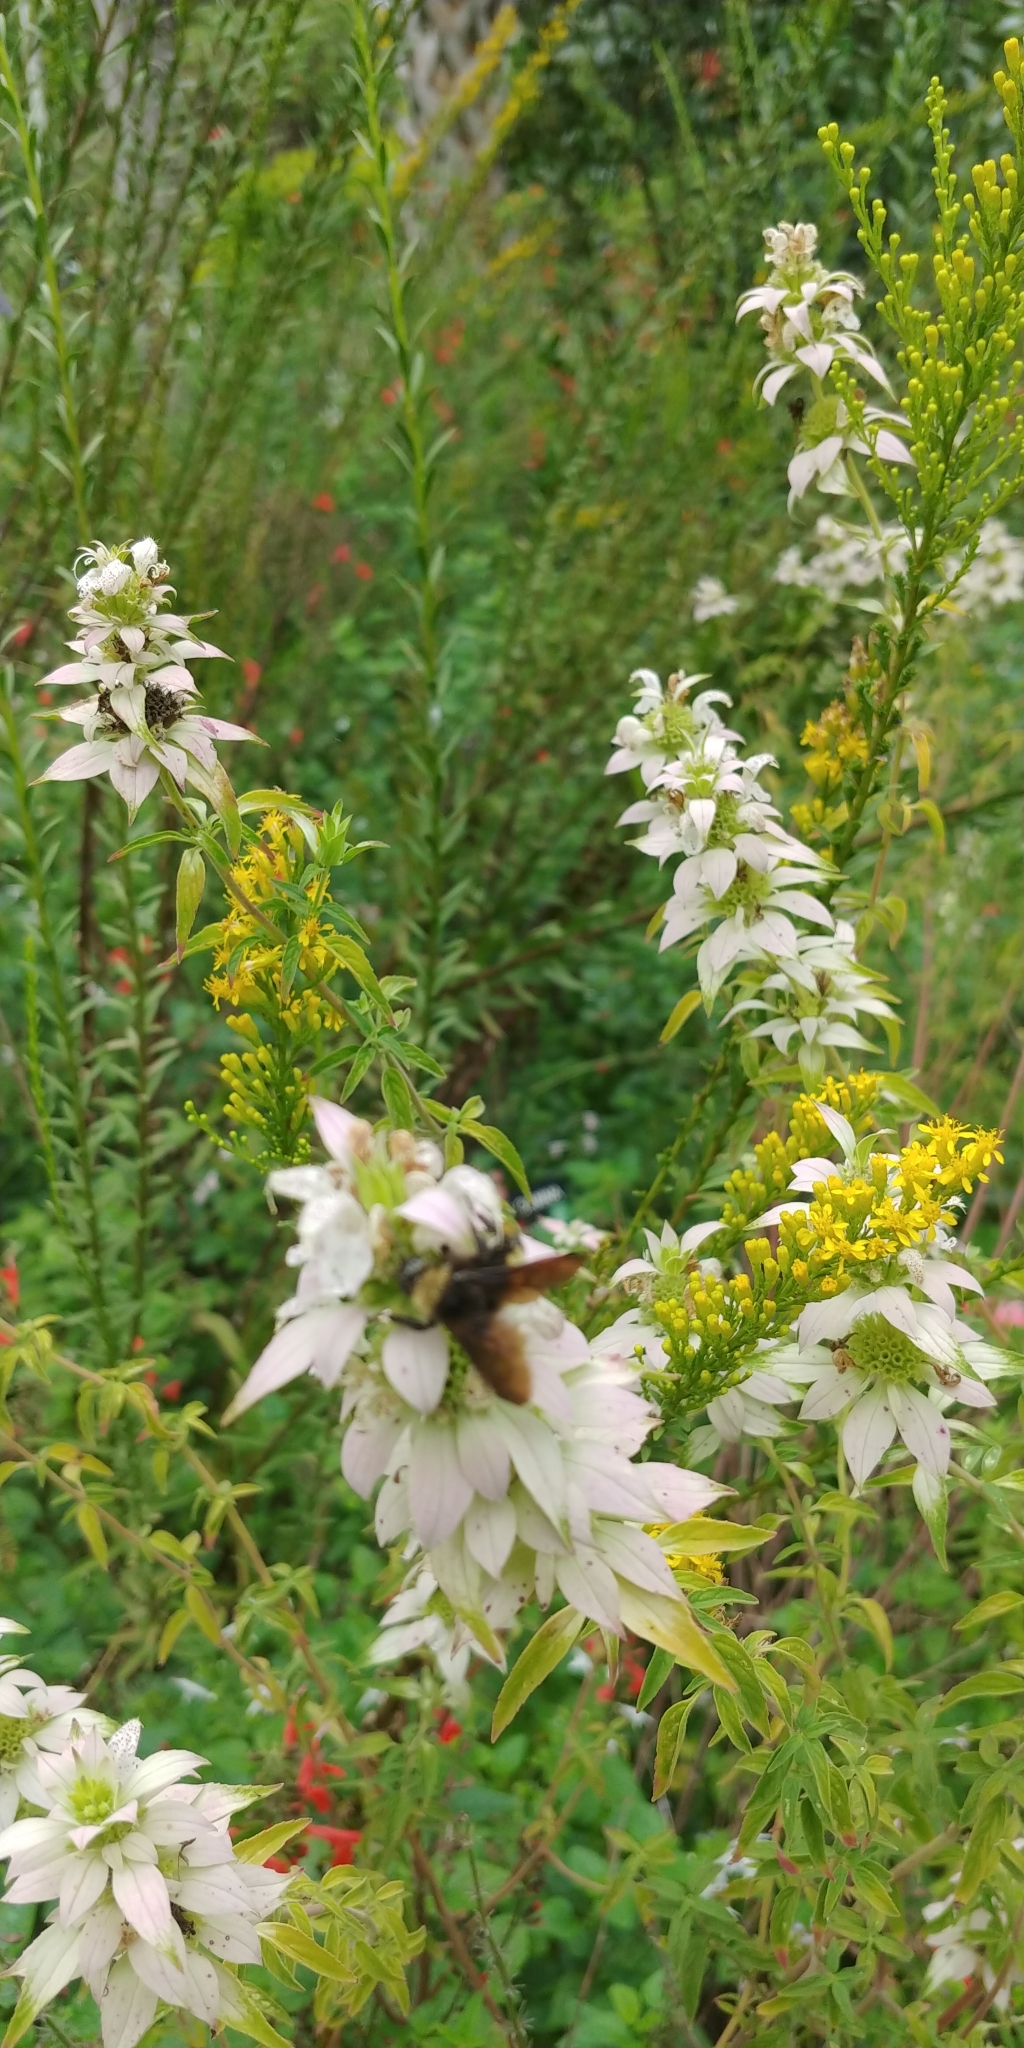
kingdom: Animalia
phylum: Arthropoda
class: Insecta
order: Hymenoptera
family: Apidae
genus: Bombus
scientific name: Bombus pensylvanicus
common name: Bumble bee
